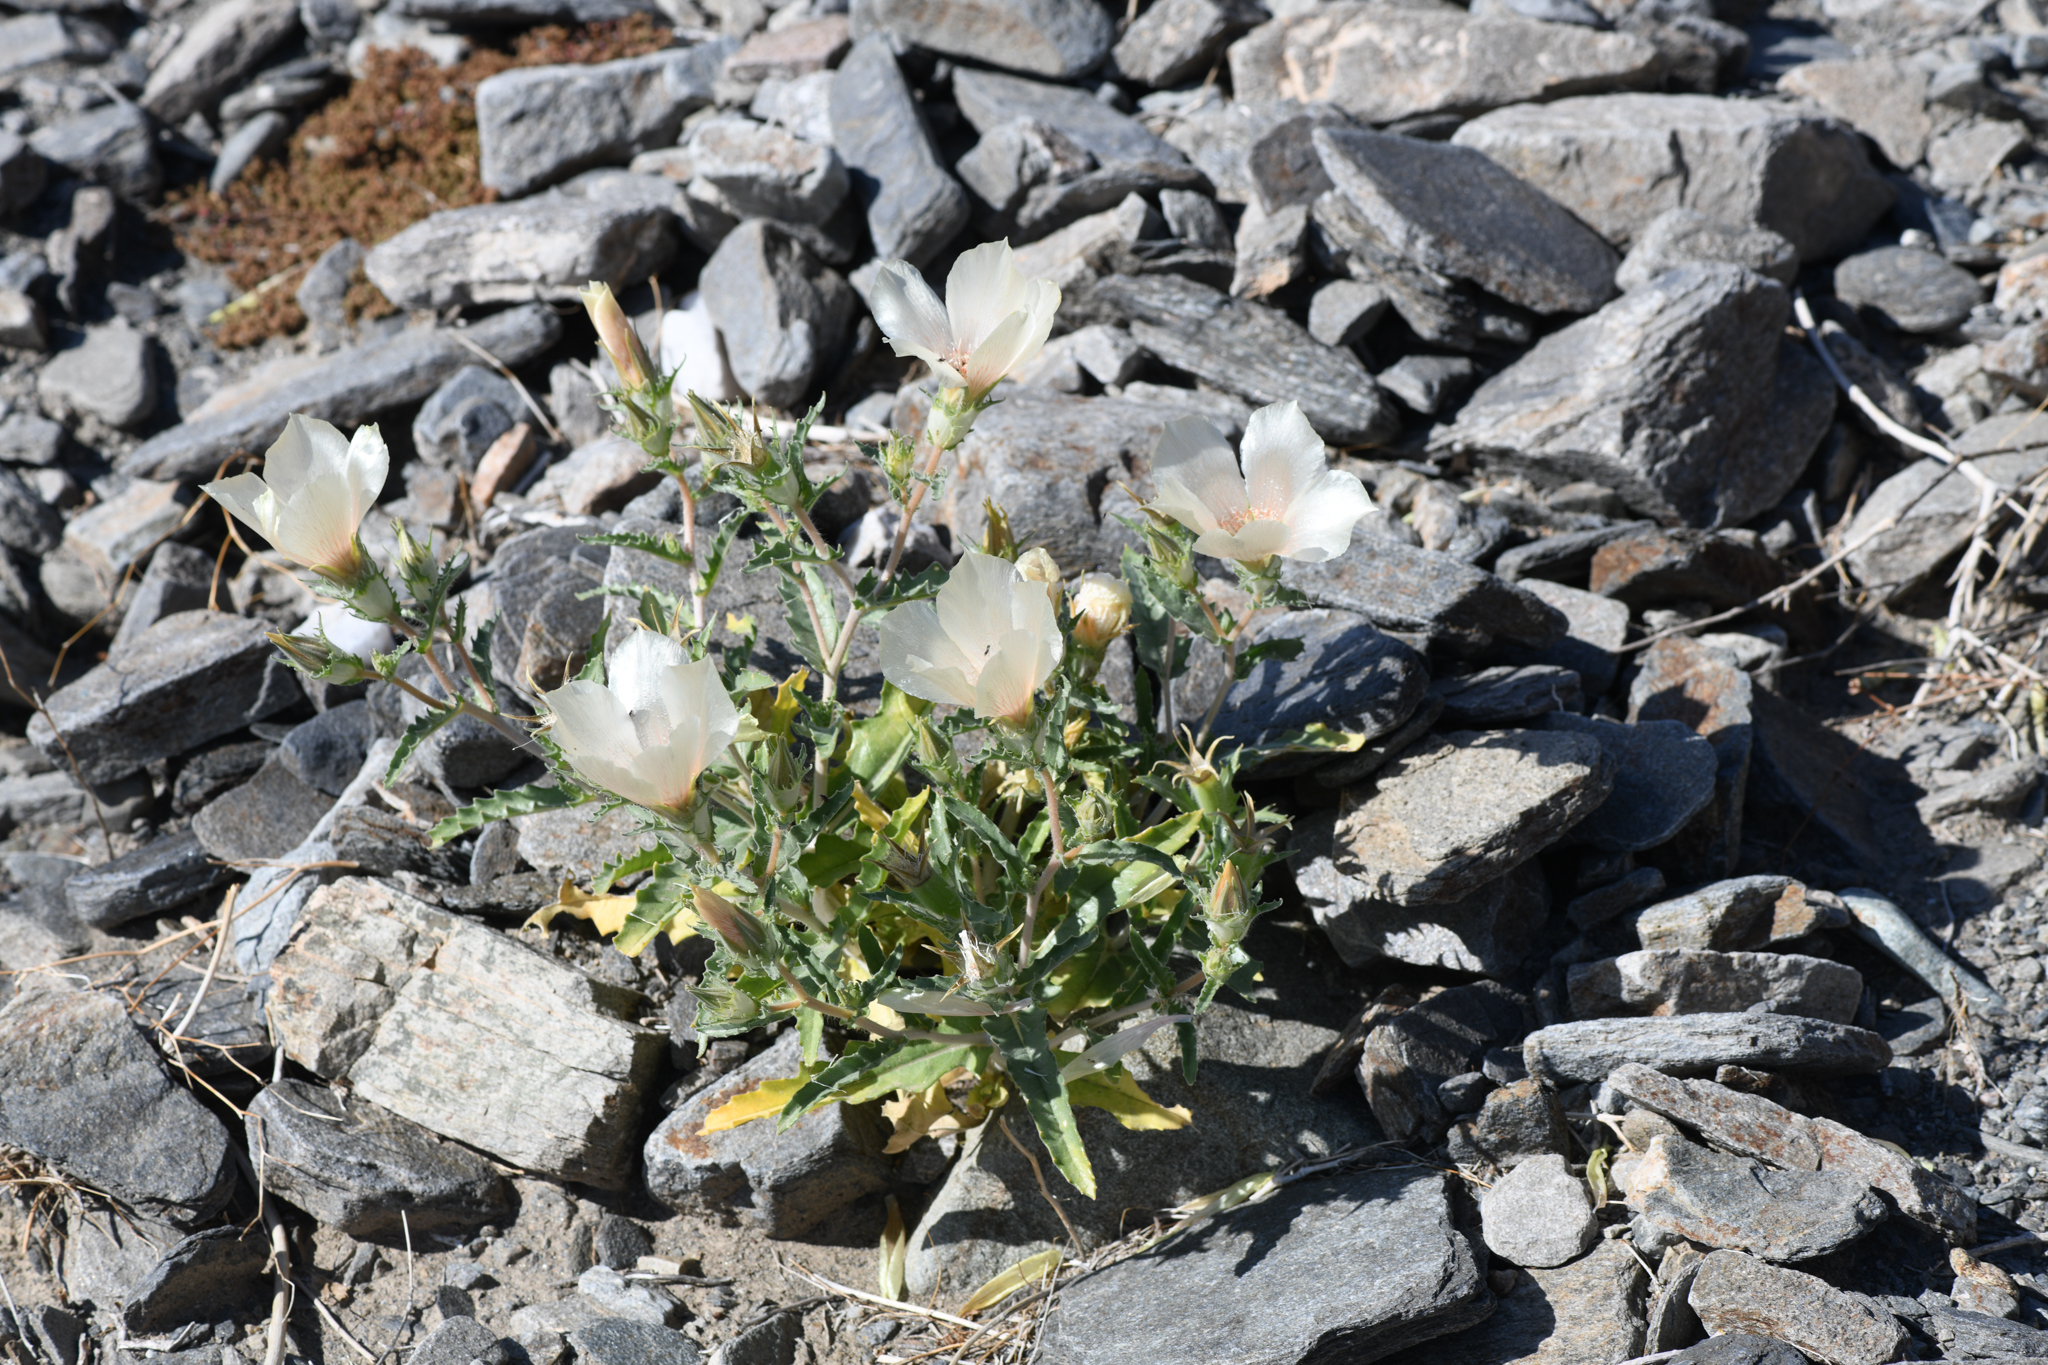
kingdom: Plantae
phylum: Tracheophyta
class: Magnoliopsida
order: Cornales
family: Loasaceae
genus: Mentzelia
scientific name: Mentzelia involucrata
